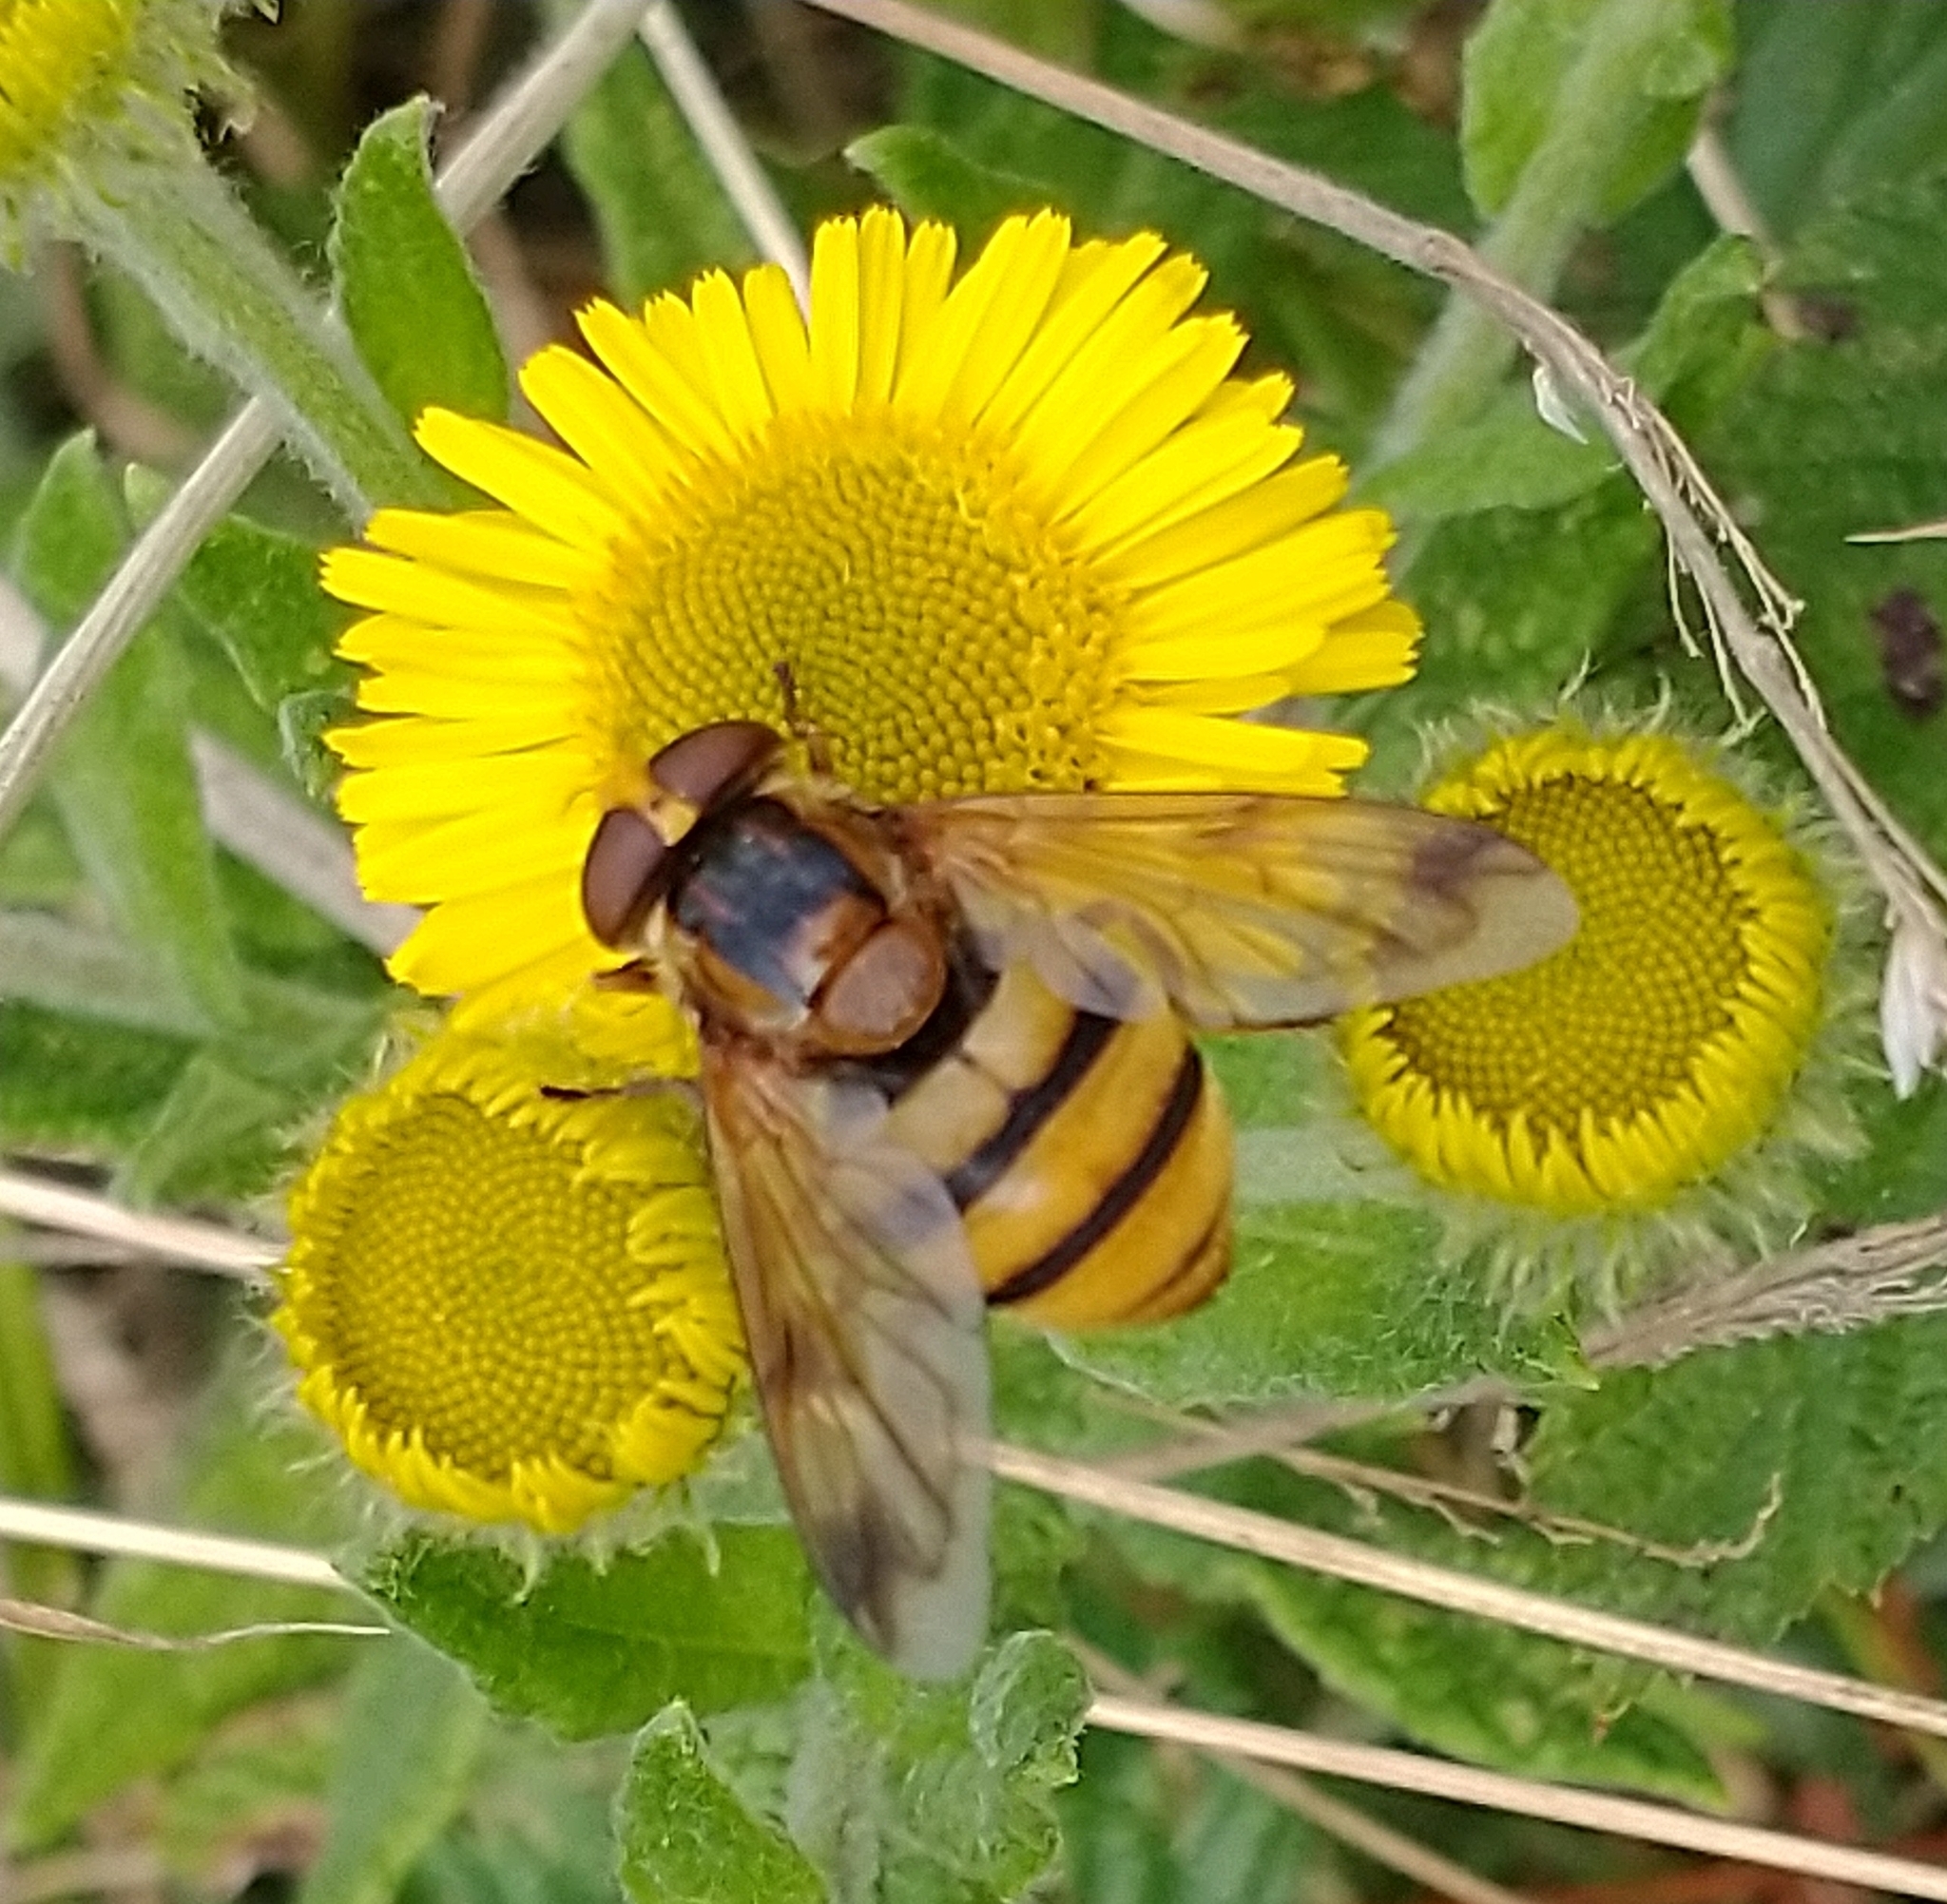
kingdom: Animalia
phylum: Arthropoda
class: Insecta
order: Diptera
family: Syrphidae
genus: Volucella
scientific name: Volucella inanis
